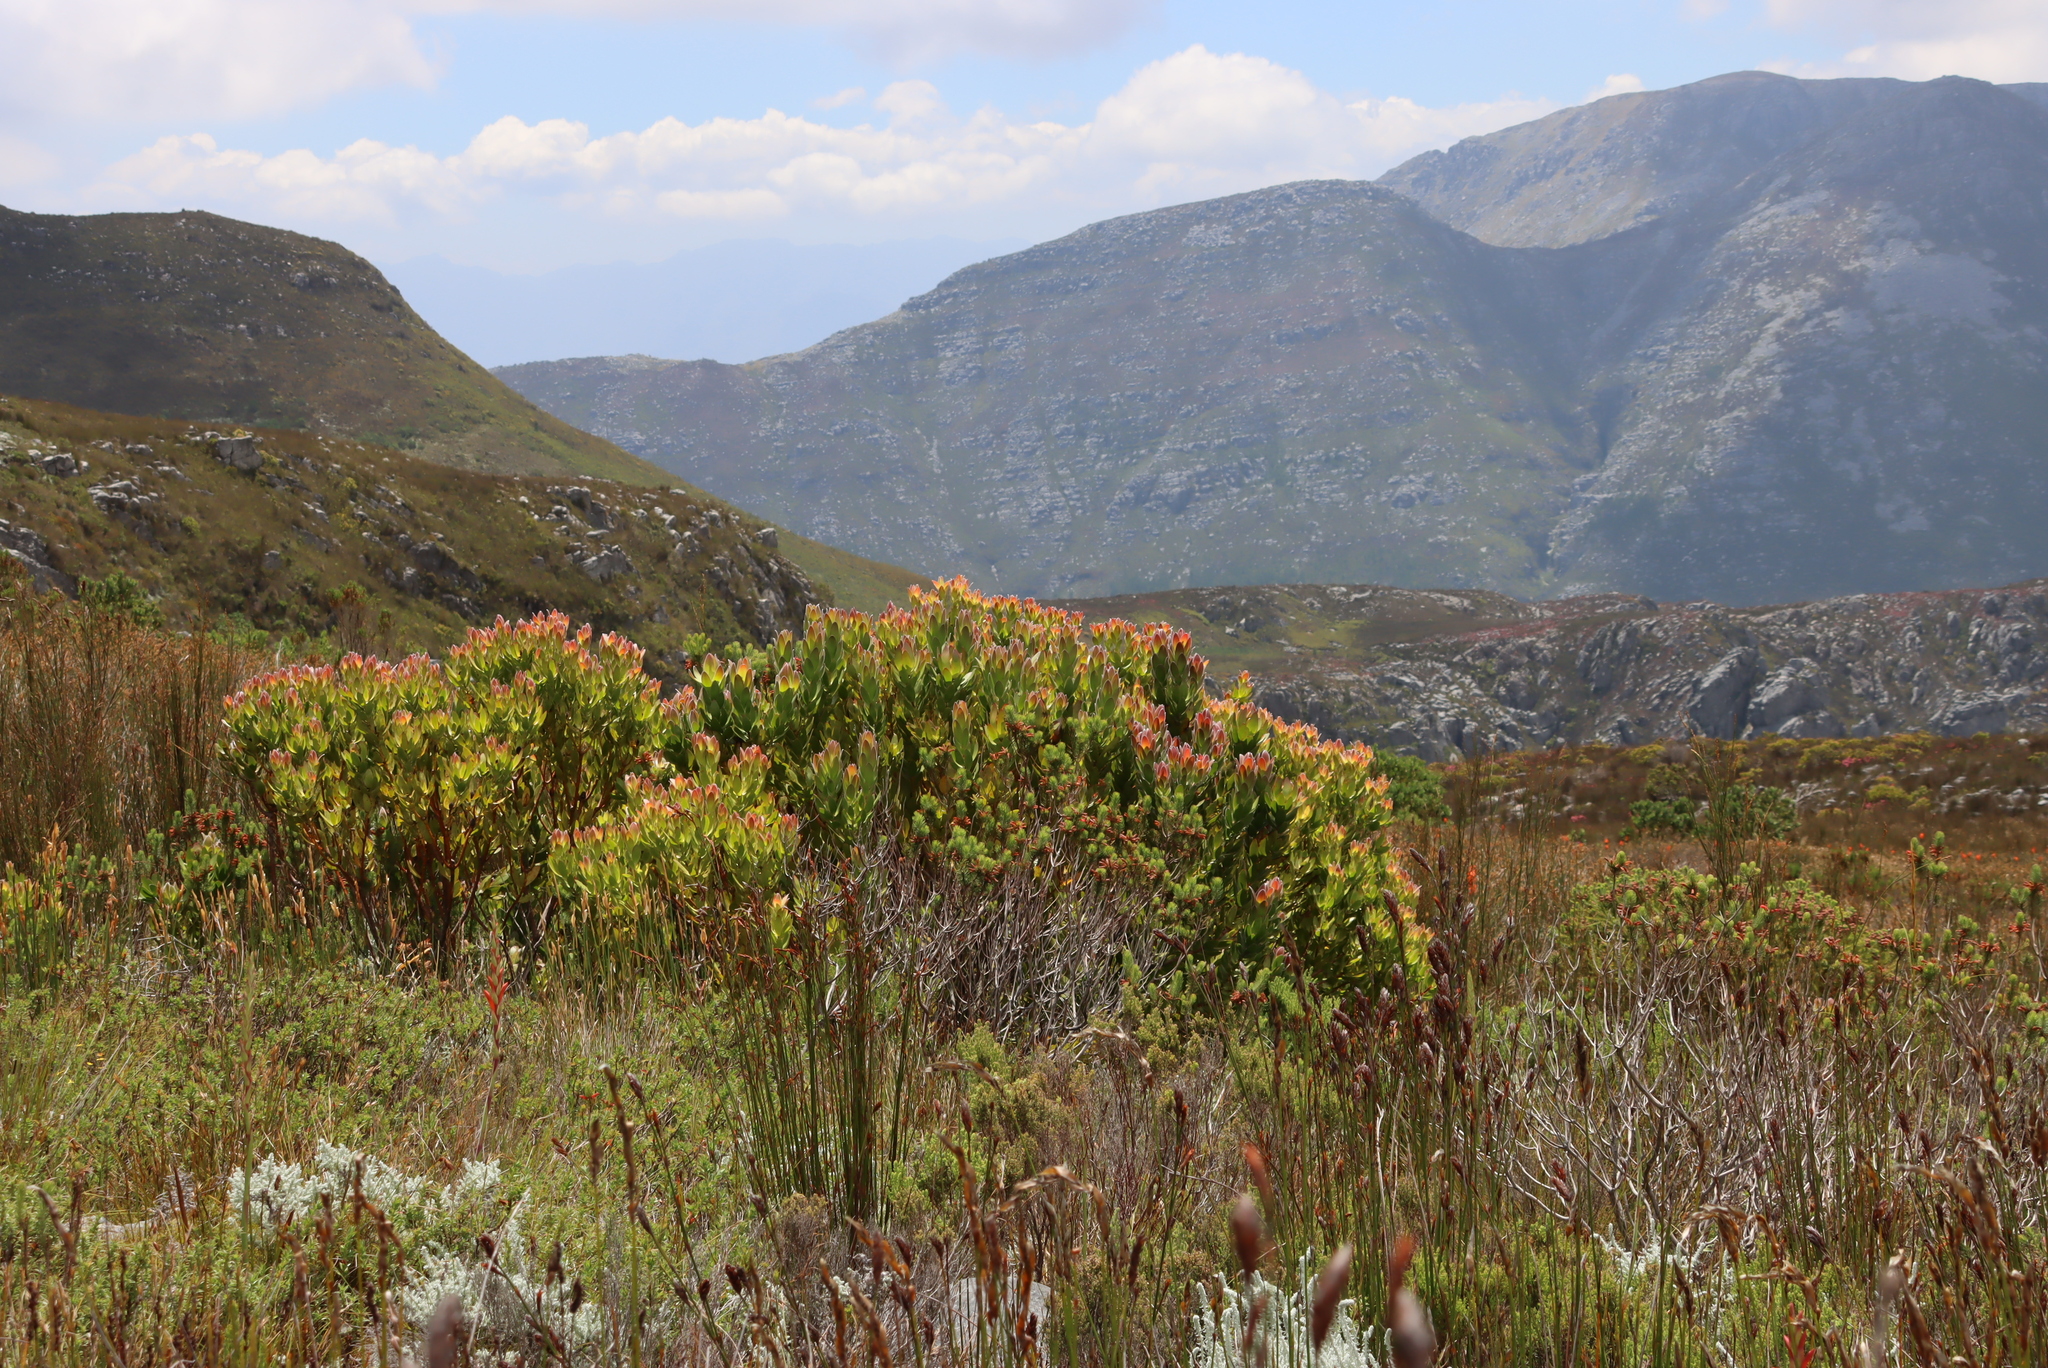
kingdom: Plantae
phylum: Tracheophyta
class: Magnoliopsida
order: Proteales
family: Proteaceae
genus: Leucadendron
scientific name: Leucadendron gandogeri
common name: Broad-leaf conebush
